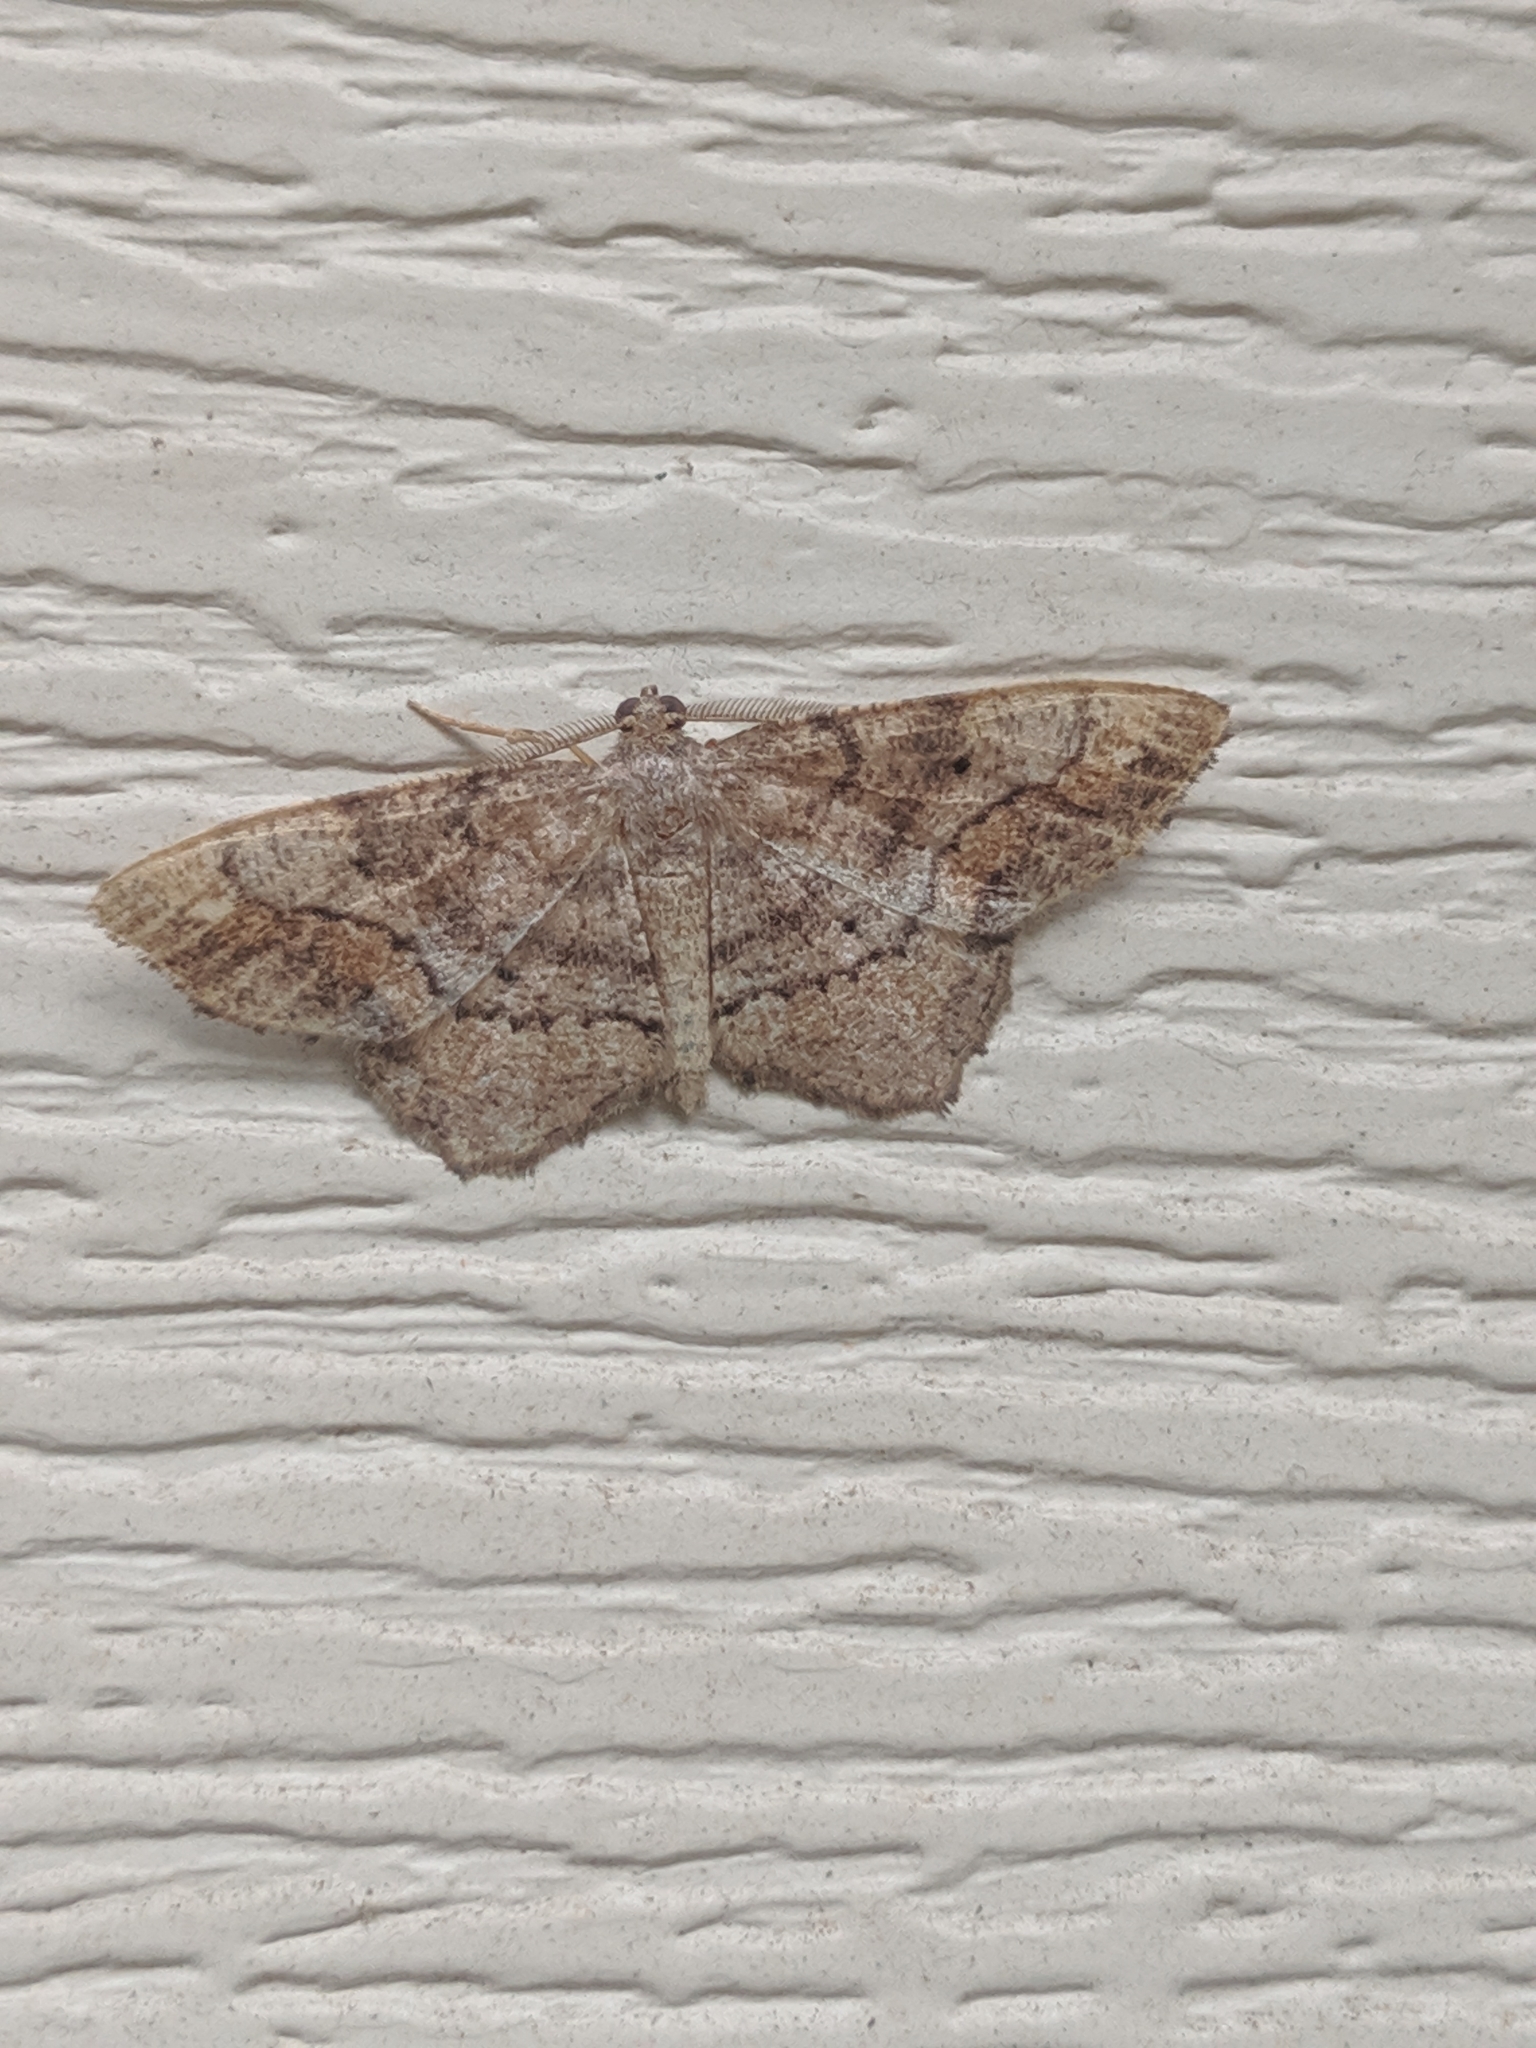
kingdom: Animalia
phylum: Arthropoda
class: Insecta
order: Lepidoptera
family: Geometridae
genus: Hypagyrtis
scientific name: Hypagyrtis unipunctata
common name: One-spotted variant
